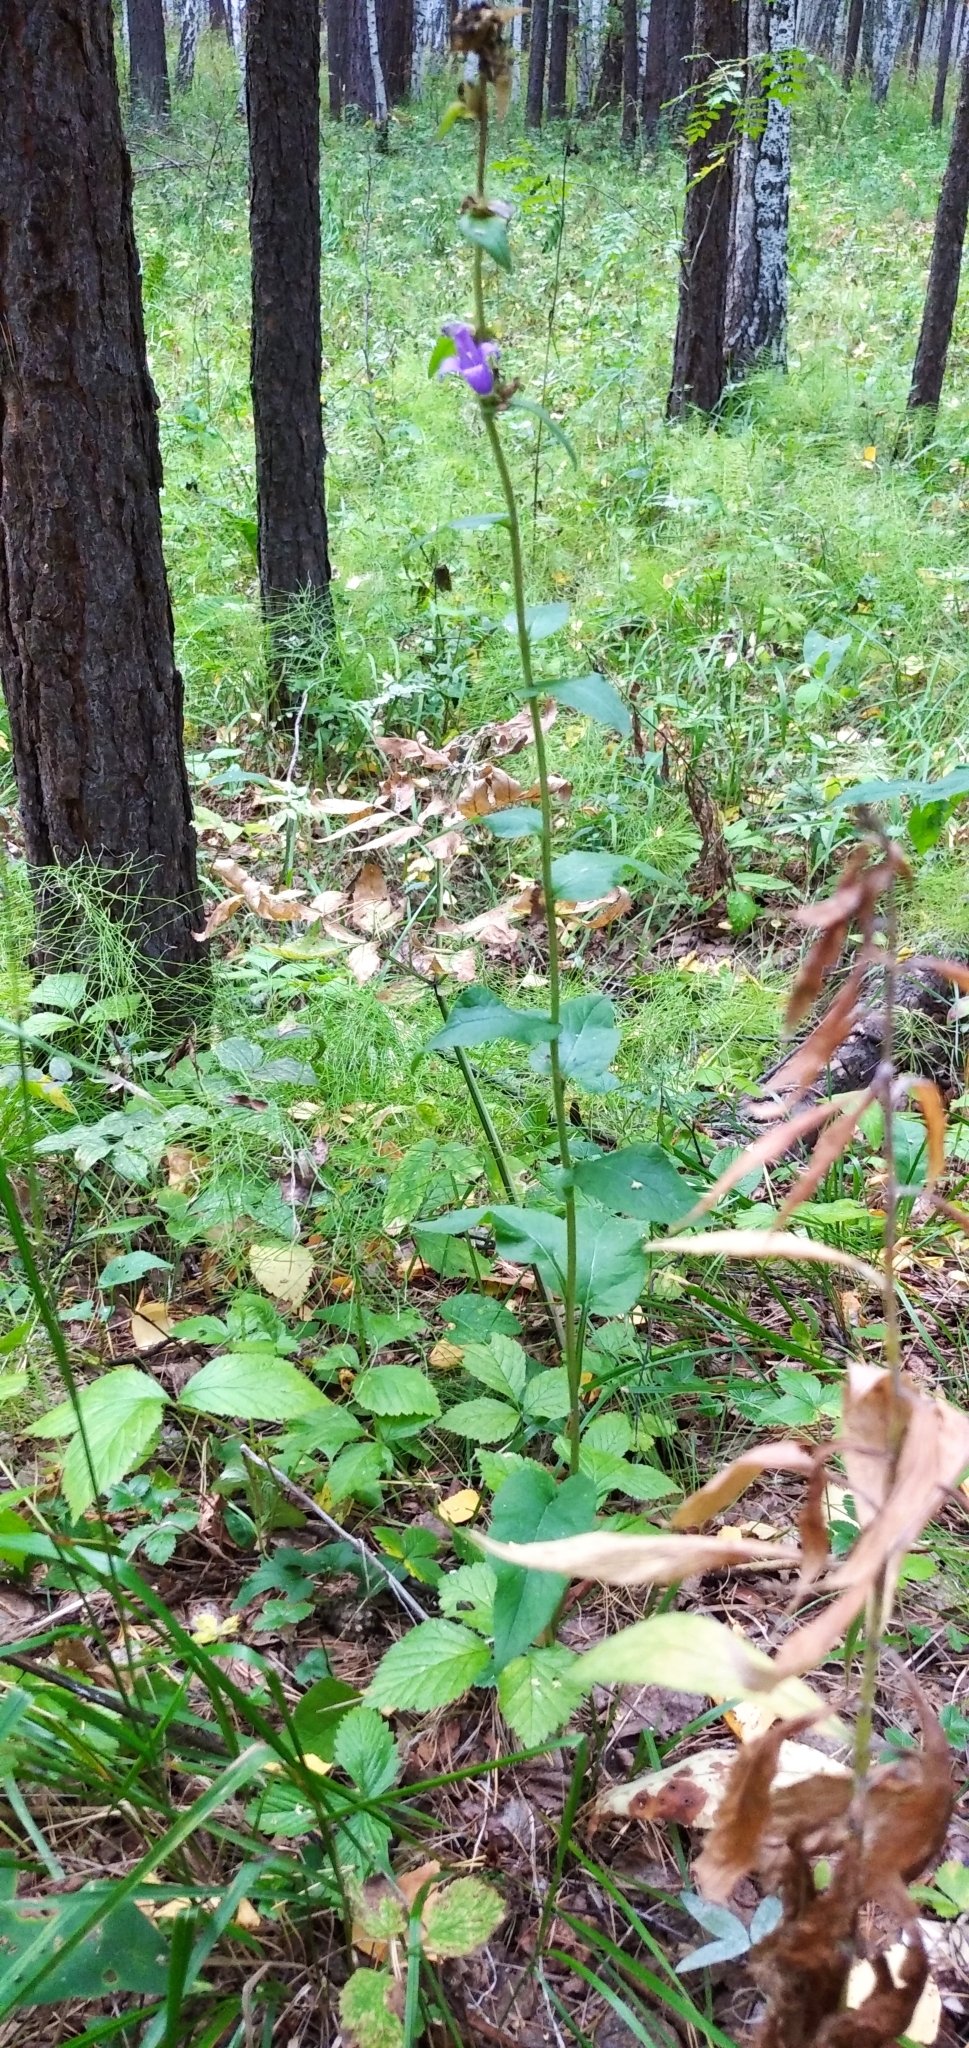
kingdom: Plantae
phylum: Tracheophyta
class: Magnoliopsida
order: Asterales
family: Campanulaceae
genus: Campanula
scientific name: Campanula glomerata
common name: Clustered bellflower
